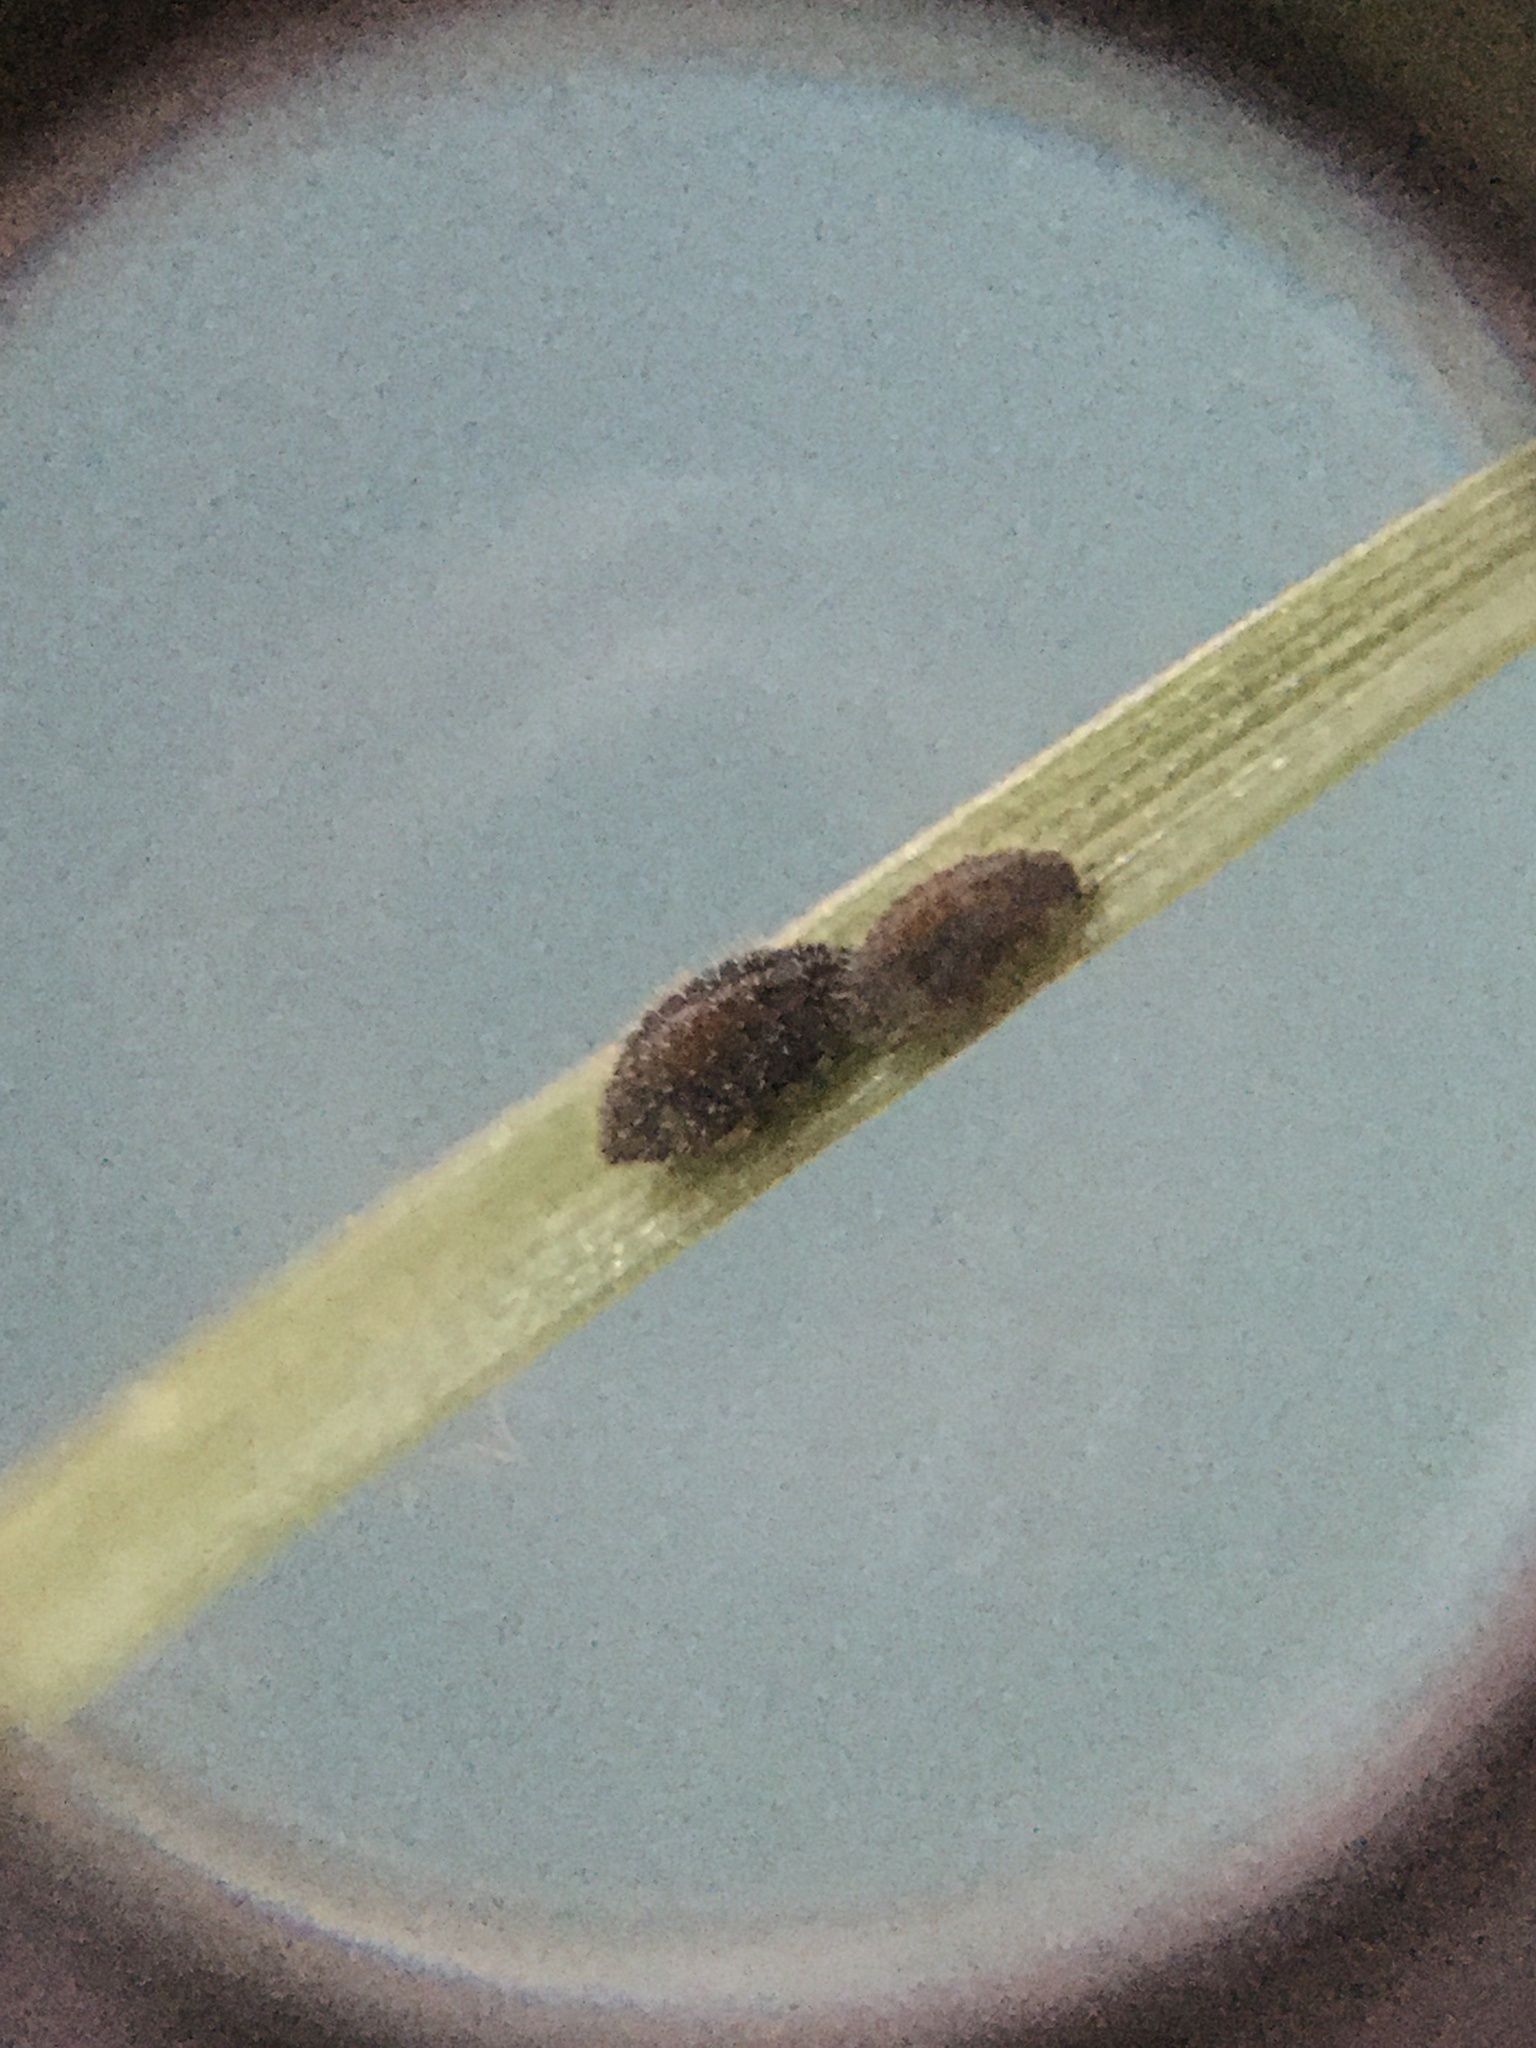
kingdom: Animalia
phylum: Arthropoda
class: Insecta
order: Hemiptera
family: Aphididae
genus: Sipha
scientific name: Sipha maydis
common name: Aphid
